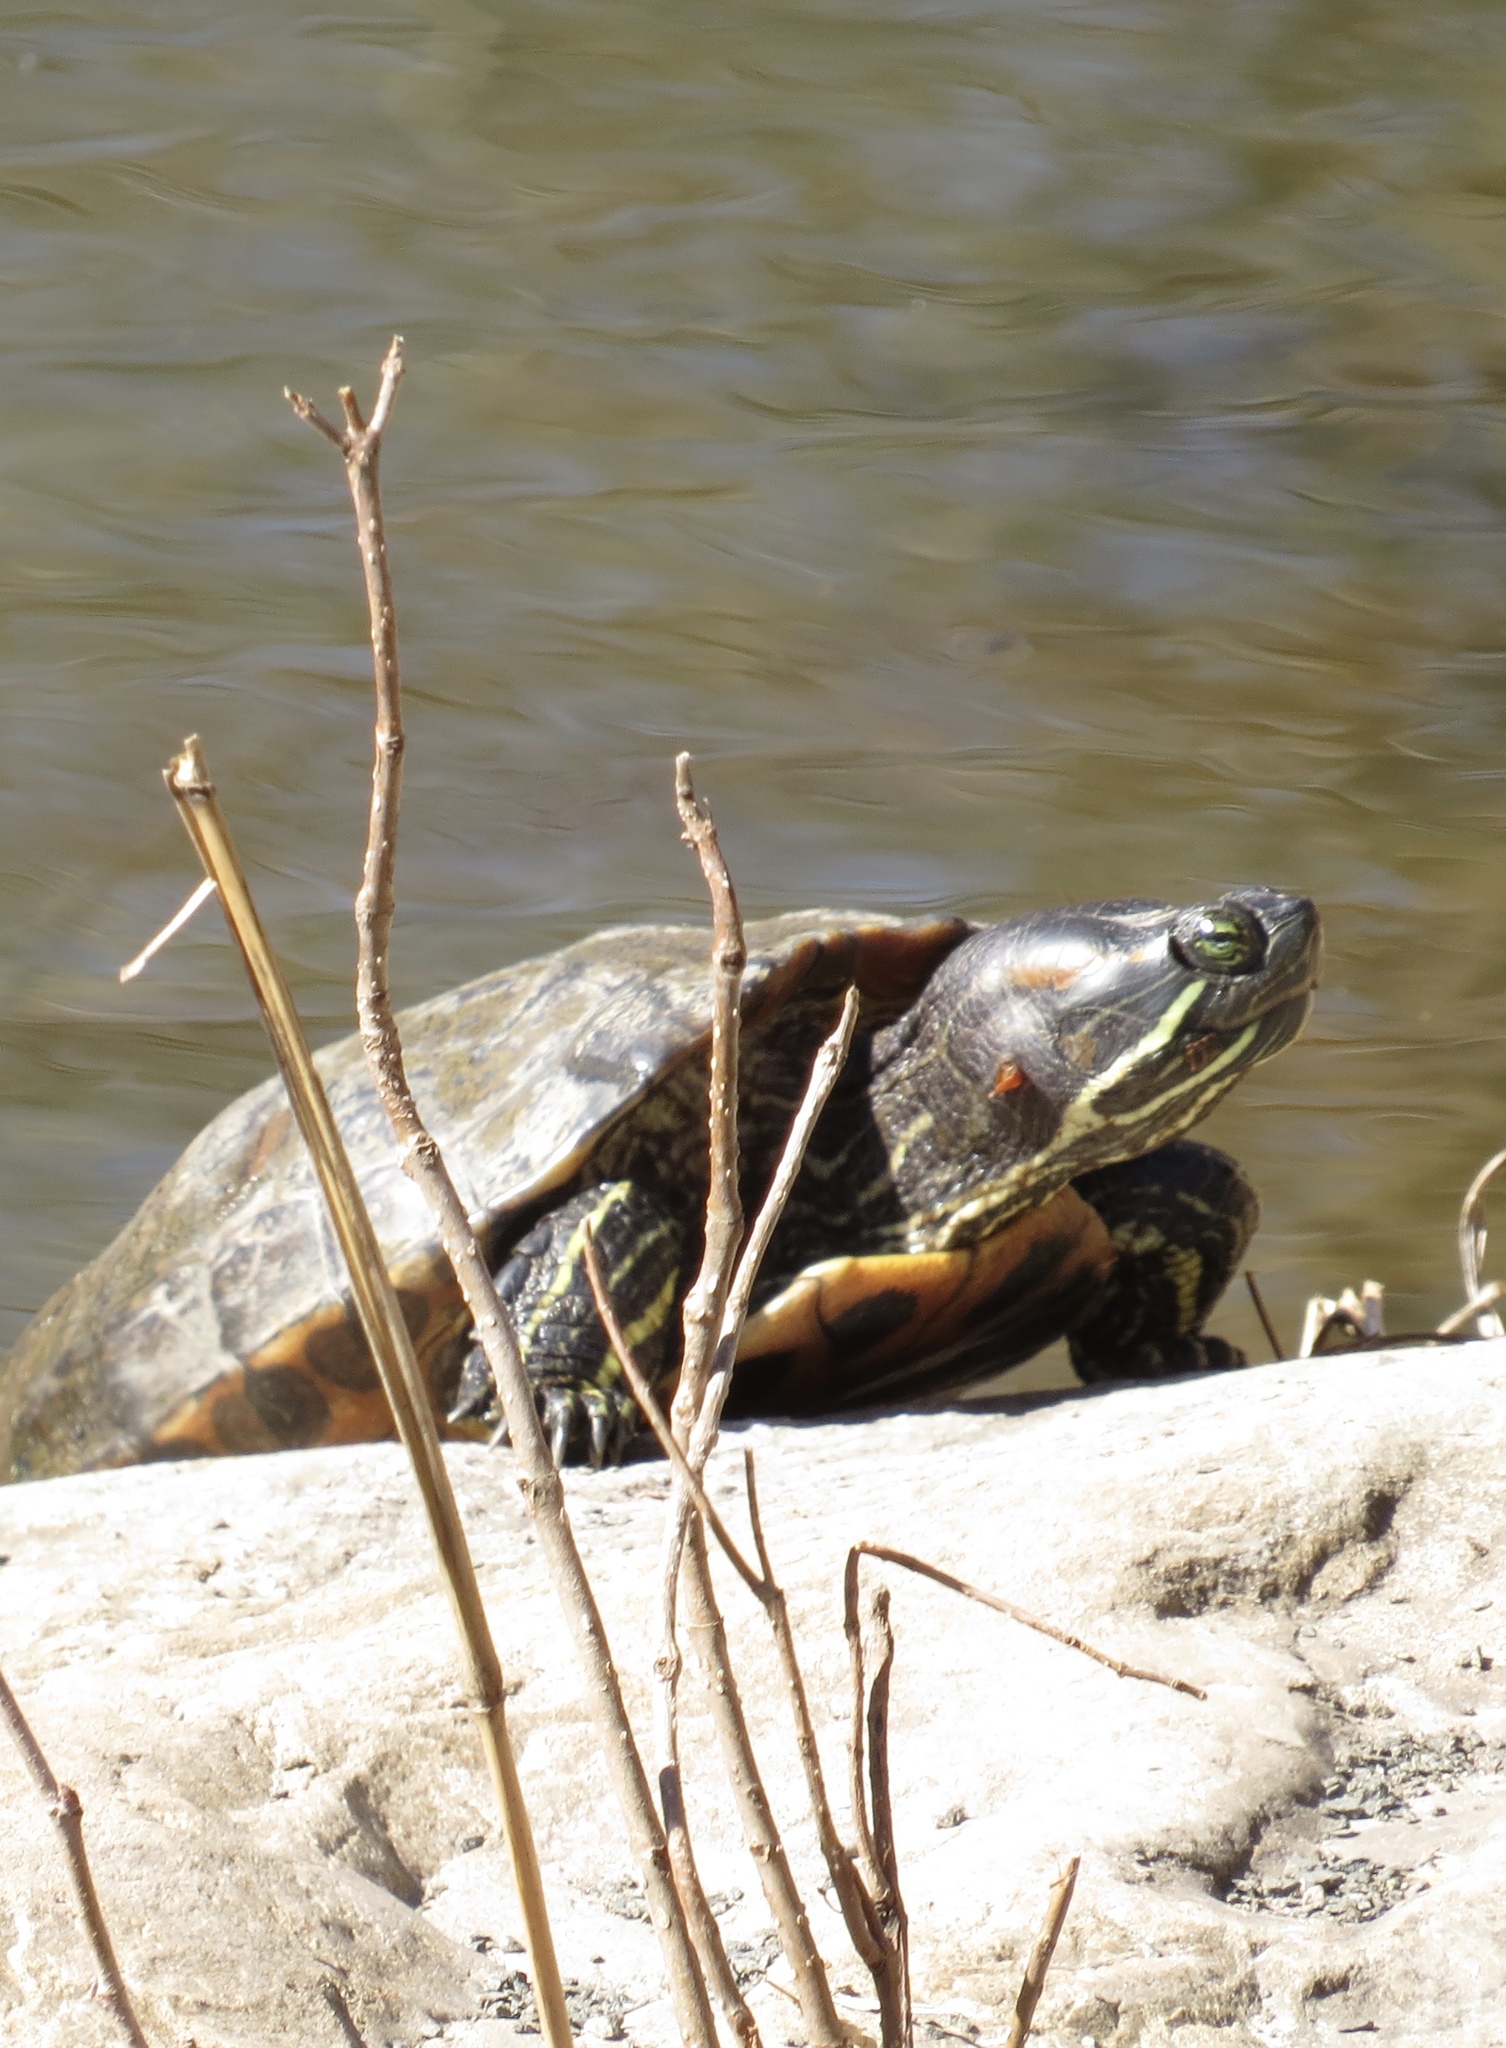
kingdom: Animalia
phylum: Chordata
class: Testudines
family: Emydidae
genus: Trachemys
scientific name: Trachemys scripta
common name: Slider
